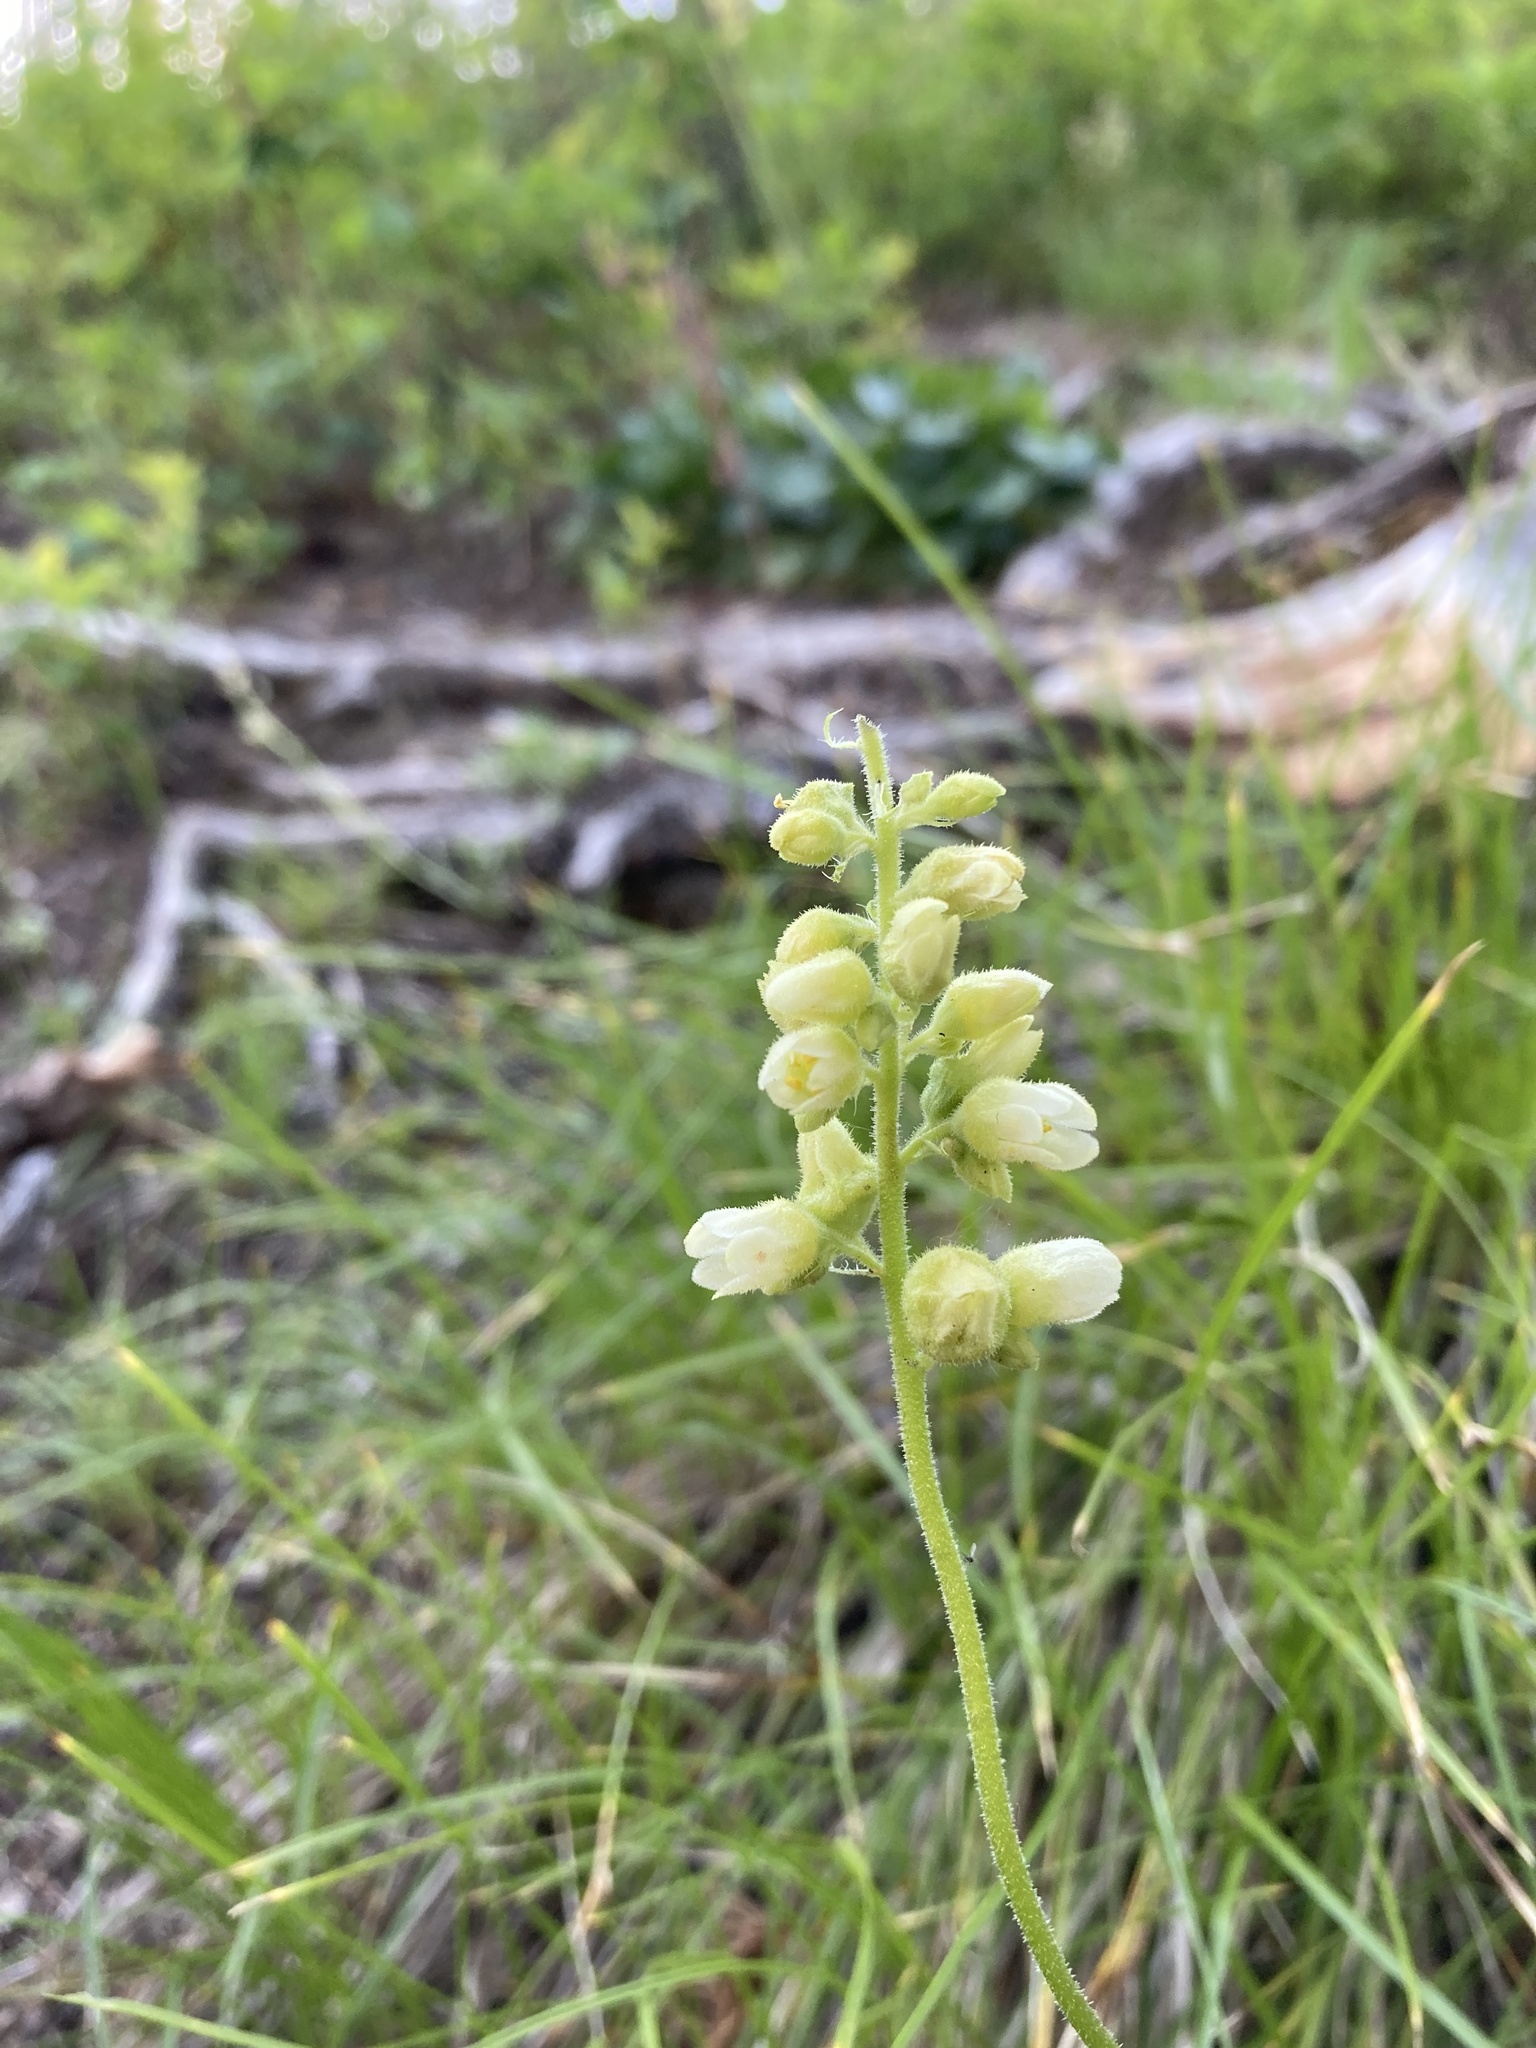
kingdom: Plantae
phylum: Tracheophyta
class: Magnoliopsida
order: Saxifragales
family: Saxifragaceae
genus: Heuchera
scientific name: Heuchera cylindrica
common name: Mat alumroot
